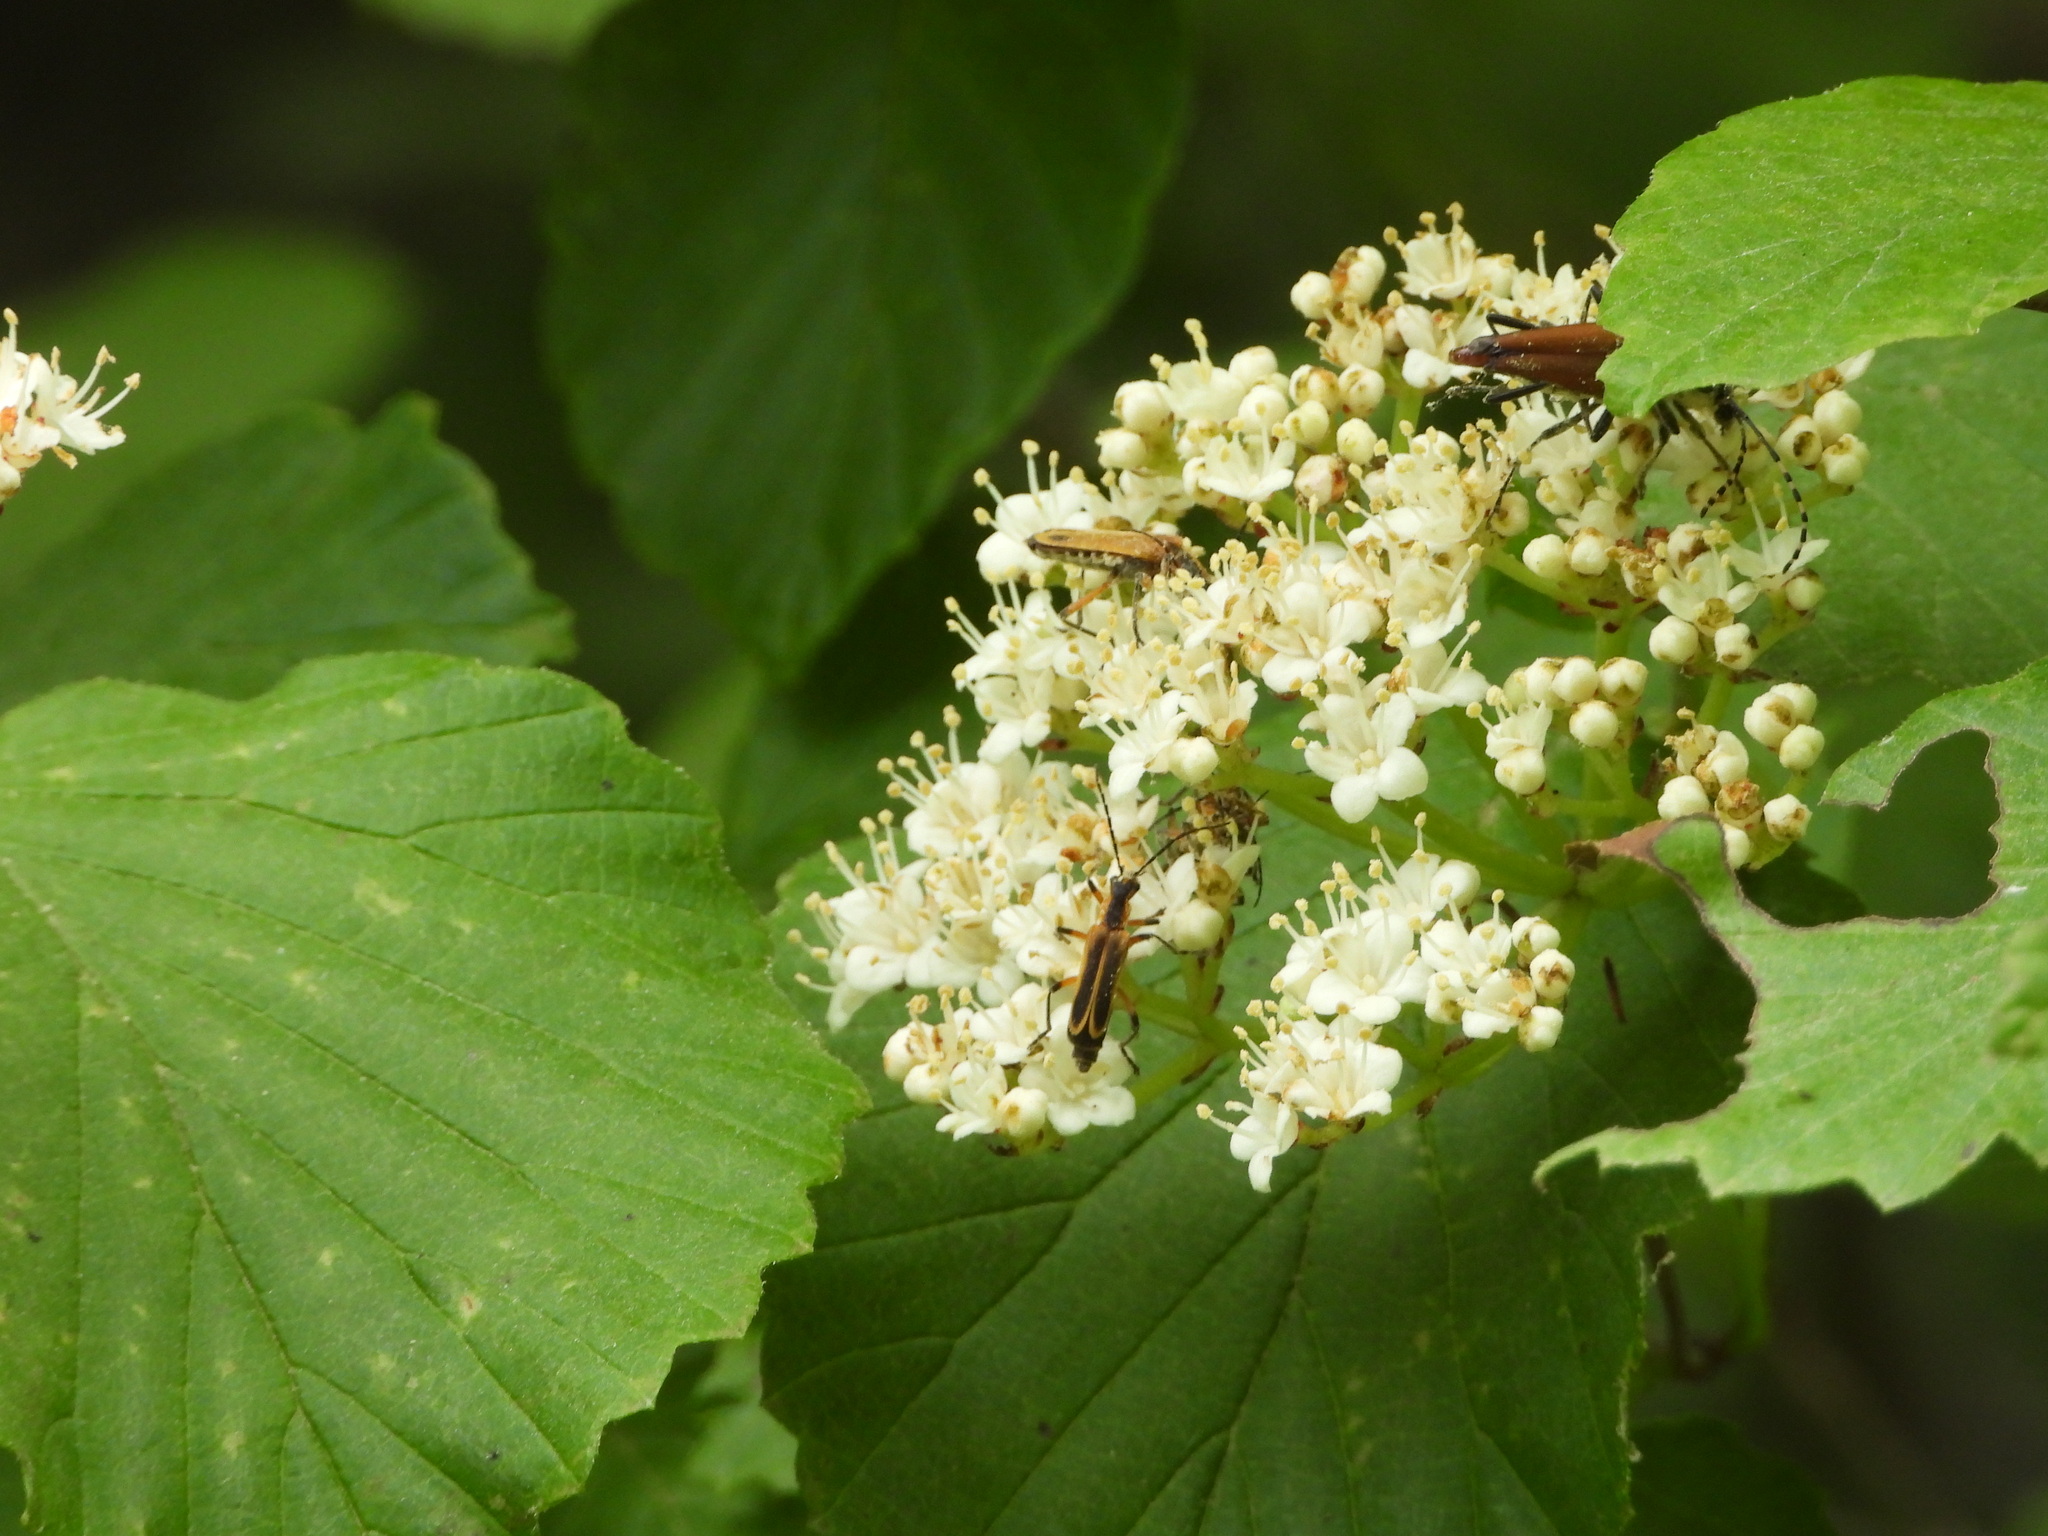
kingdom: Animalia
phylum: Arthropoda
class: Insecta
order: Coleoptera
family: Cerambycidae
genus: Brachyleptura
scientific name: Brachyleptura rubrica
